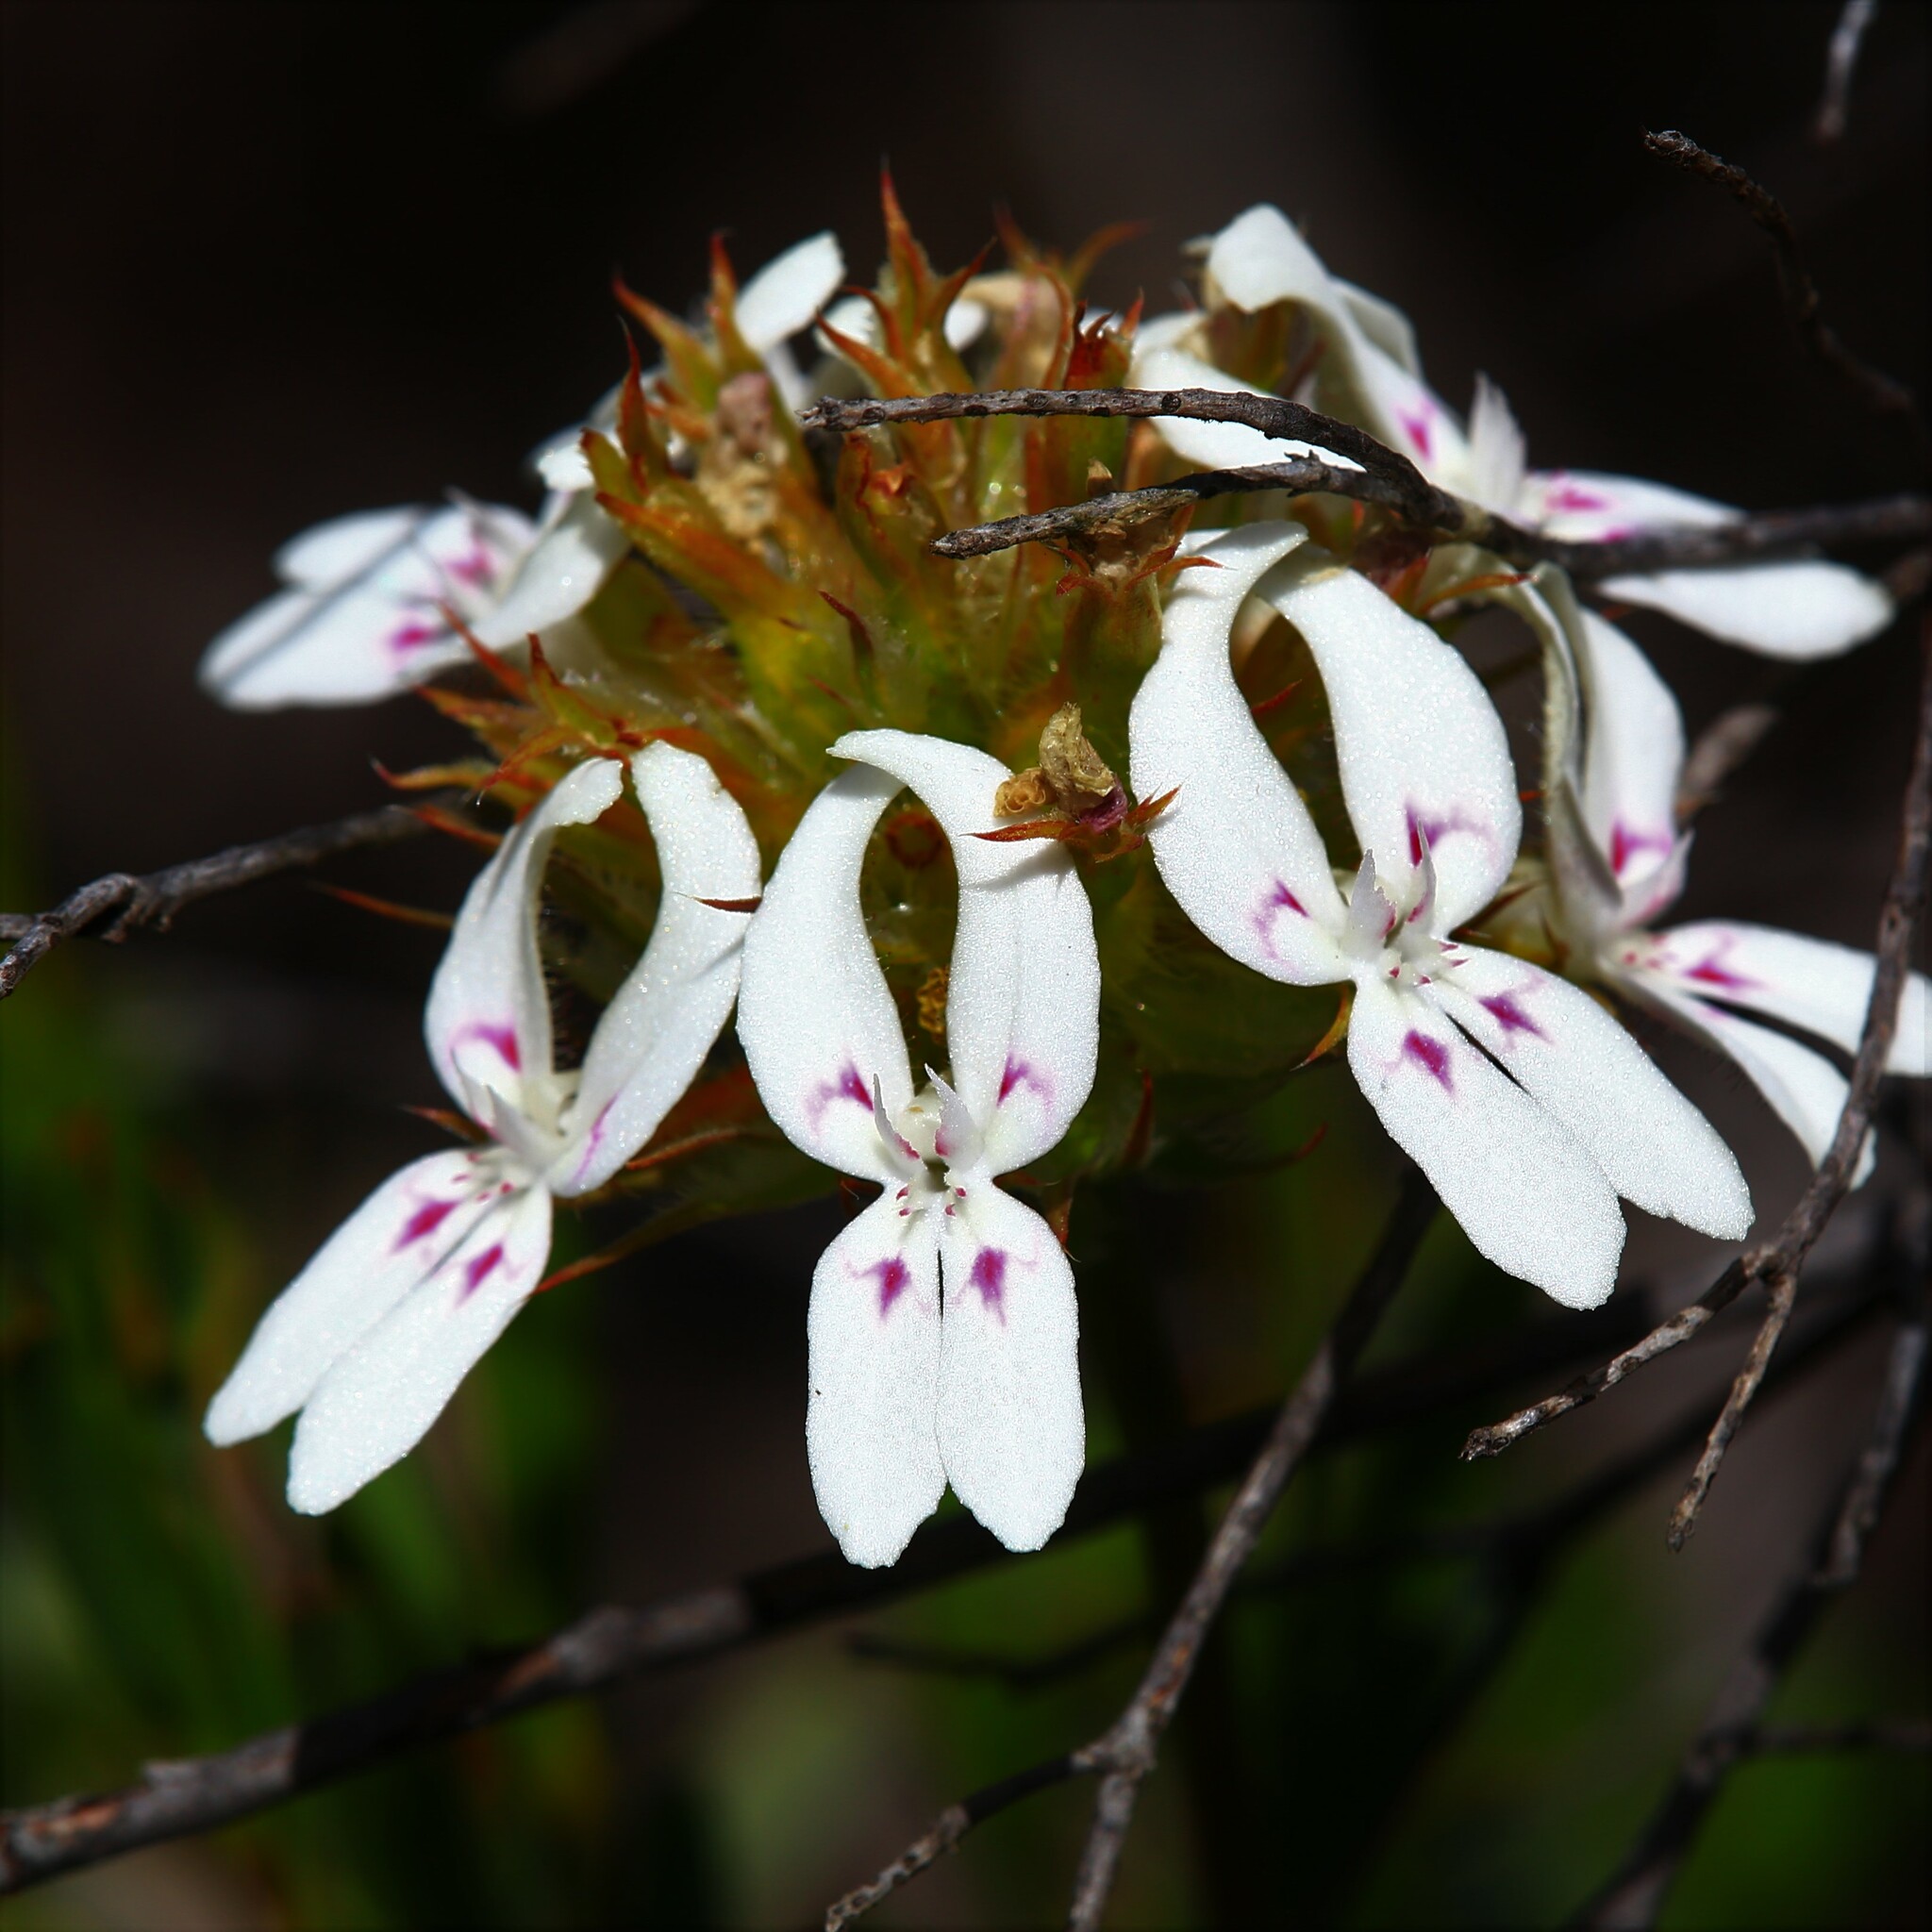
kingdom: Plantae
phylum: Tracheophyta
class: Magnoliopsida
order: Asterales
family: Stylidiaceae
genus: Stylidium
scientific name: Stylidium crossocephalum
